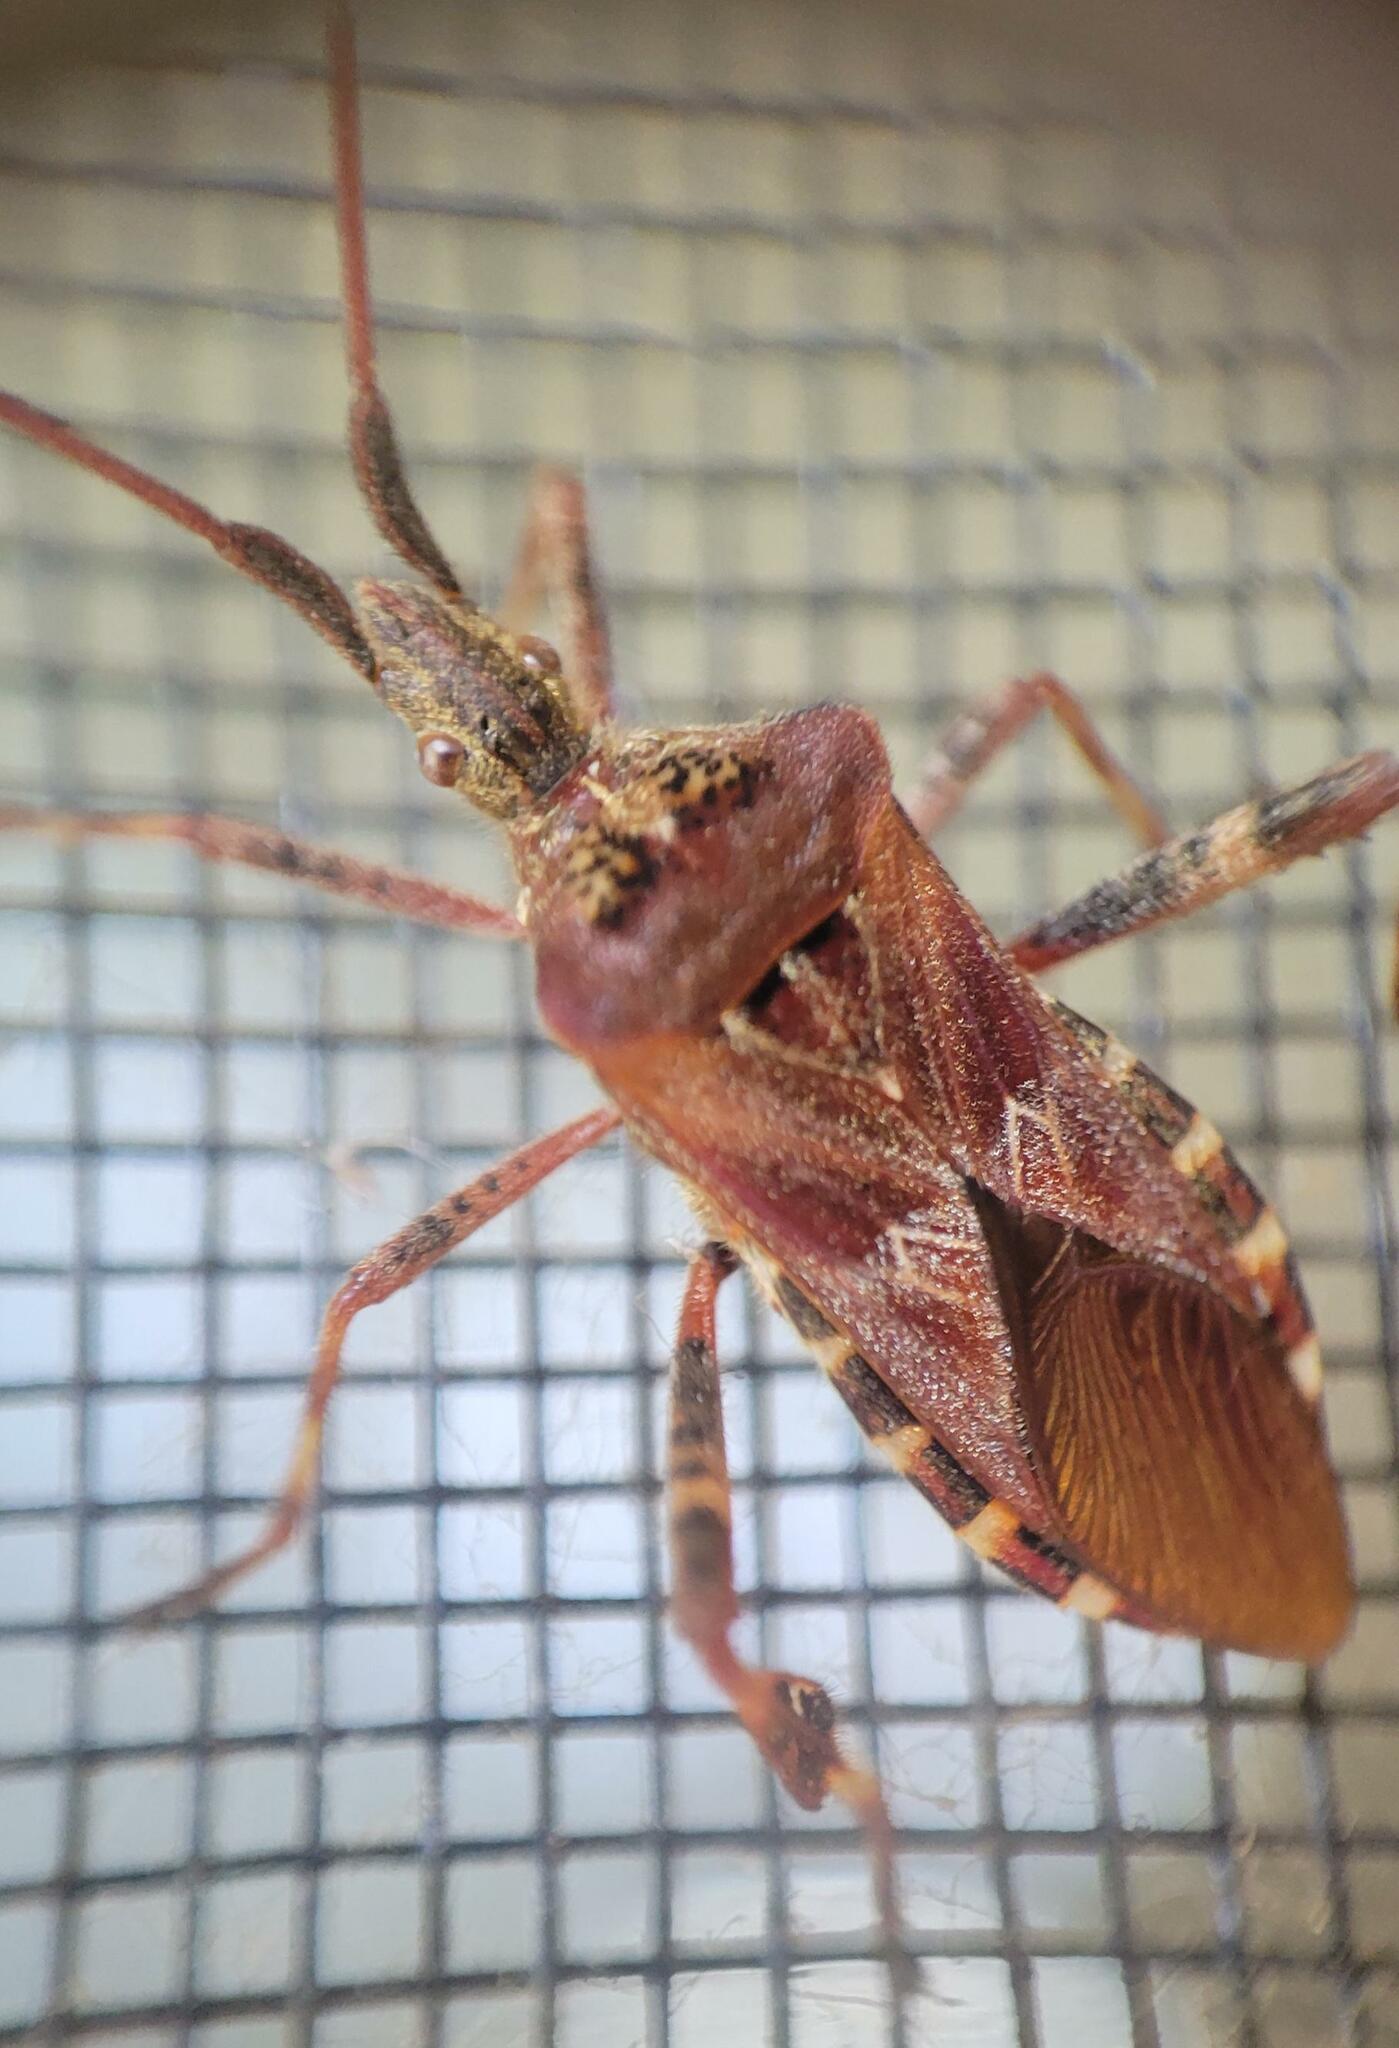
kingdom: Animalia
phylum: Arthropoda
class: Insecta
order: Hemiptera
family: Coreidae
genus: Leptoglossus
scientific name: Leptoglossus occidentalis
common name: Western conifer-seed bug
